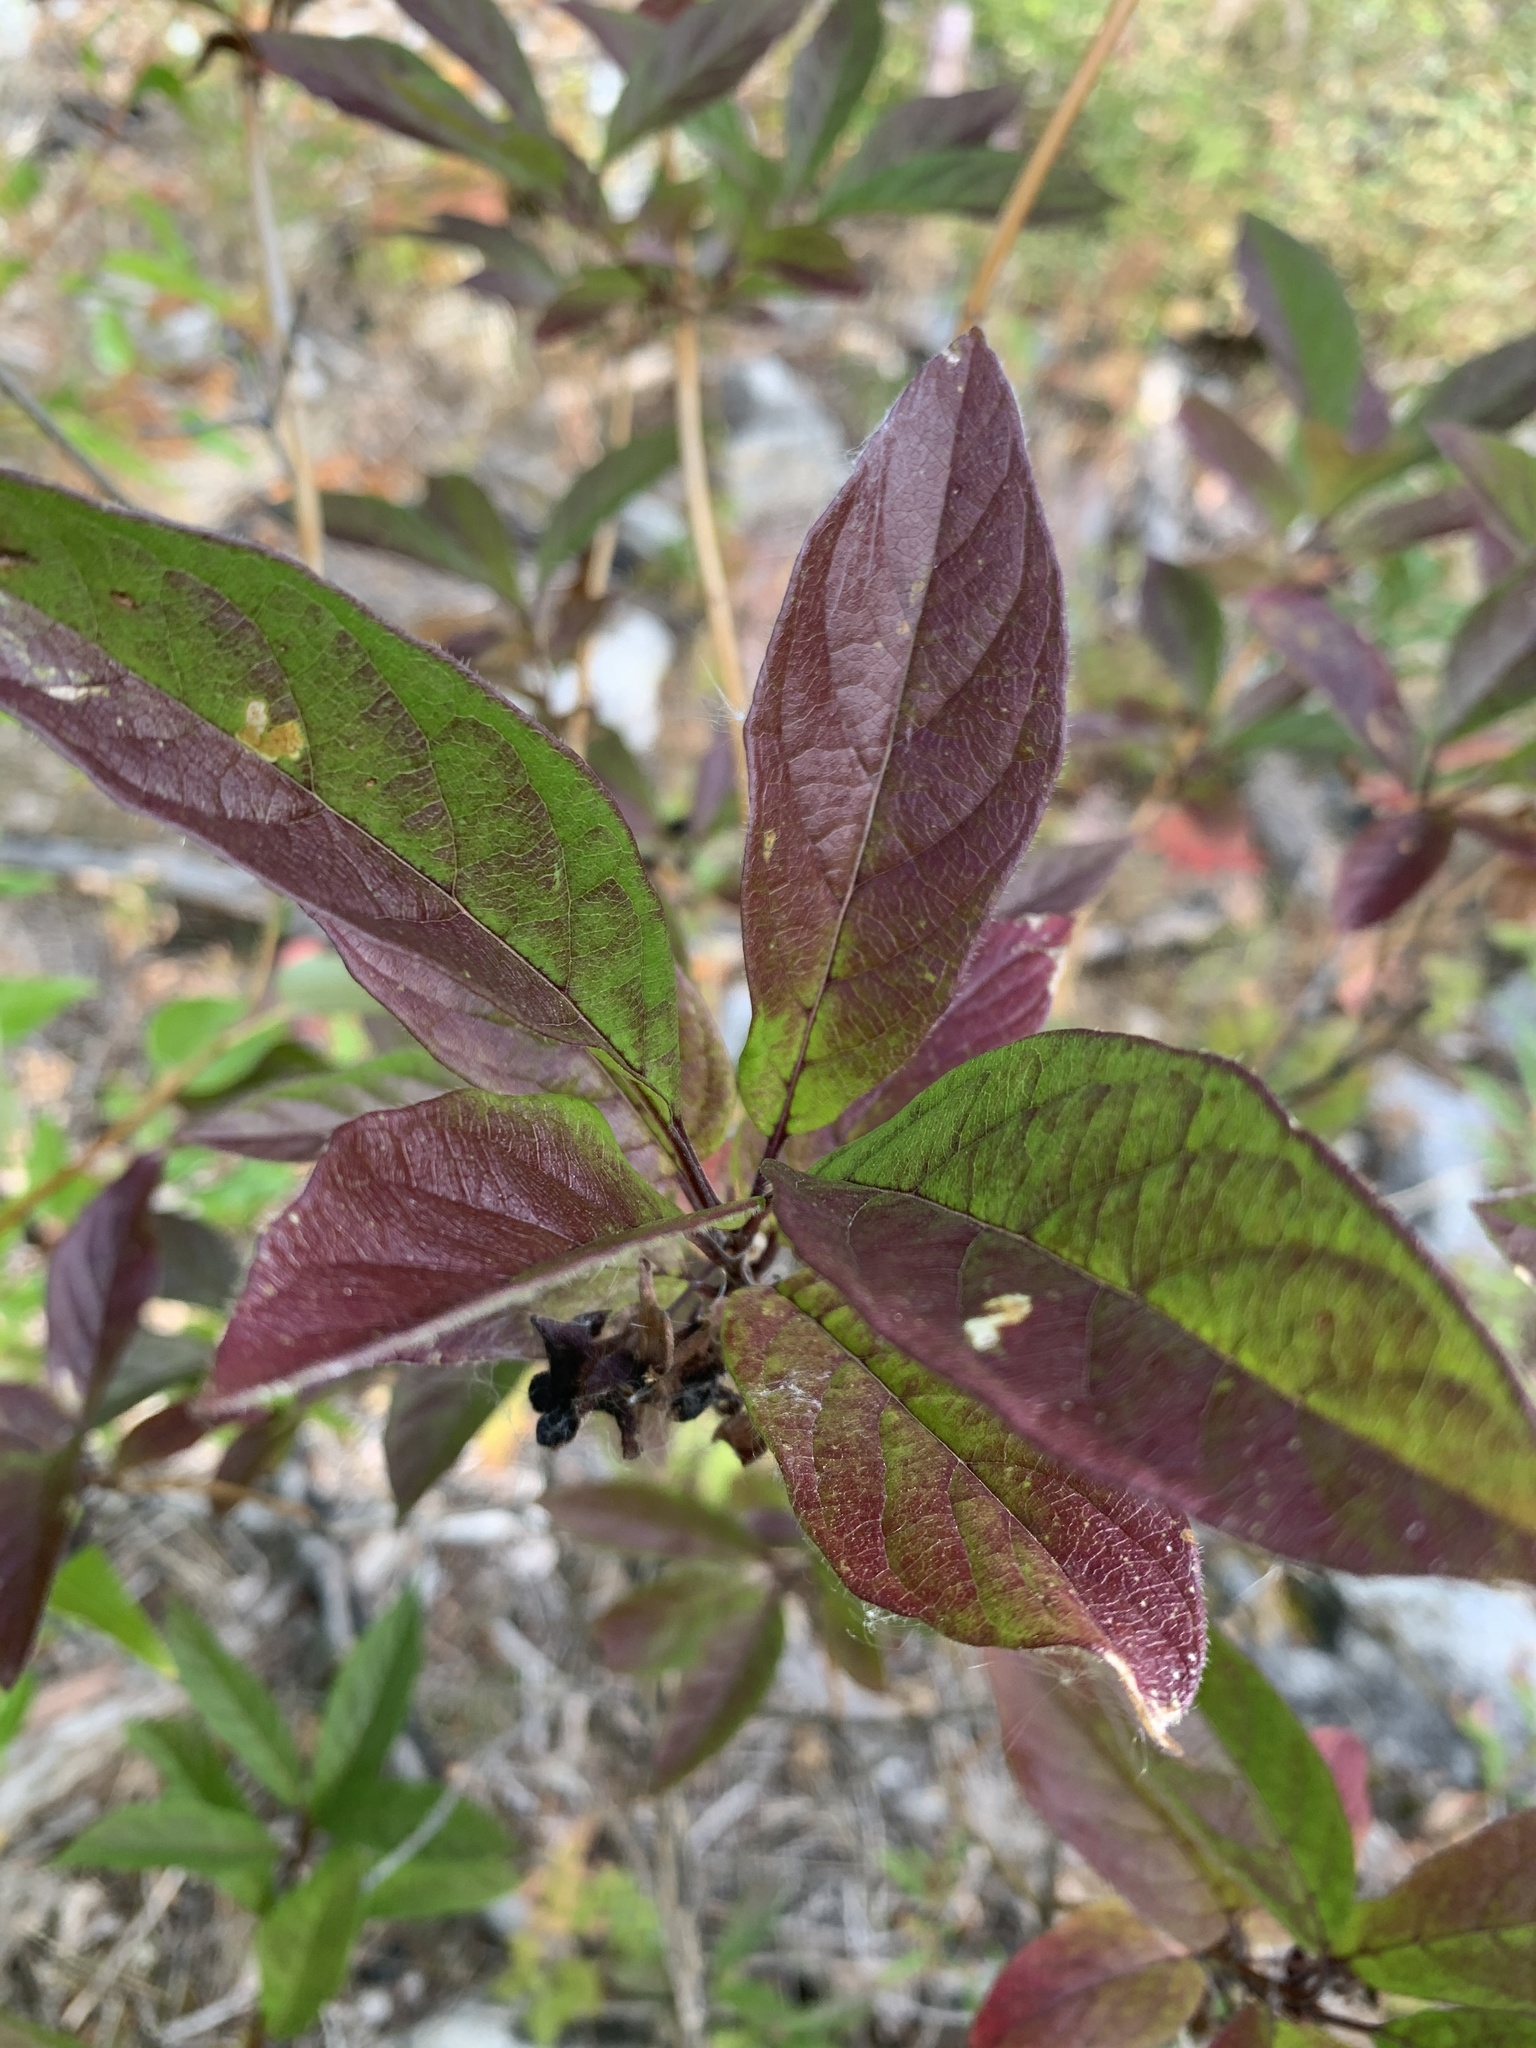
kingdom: Plantae
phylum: Tracheophyta
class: Magnoliopsida
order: Dipsacales
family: Caprifoliaceae
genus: Lonicera
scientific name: Lonicera involucrata
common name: Californian honeysuckle
